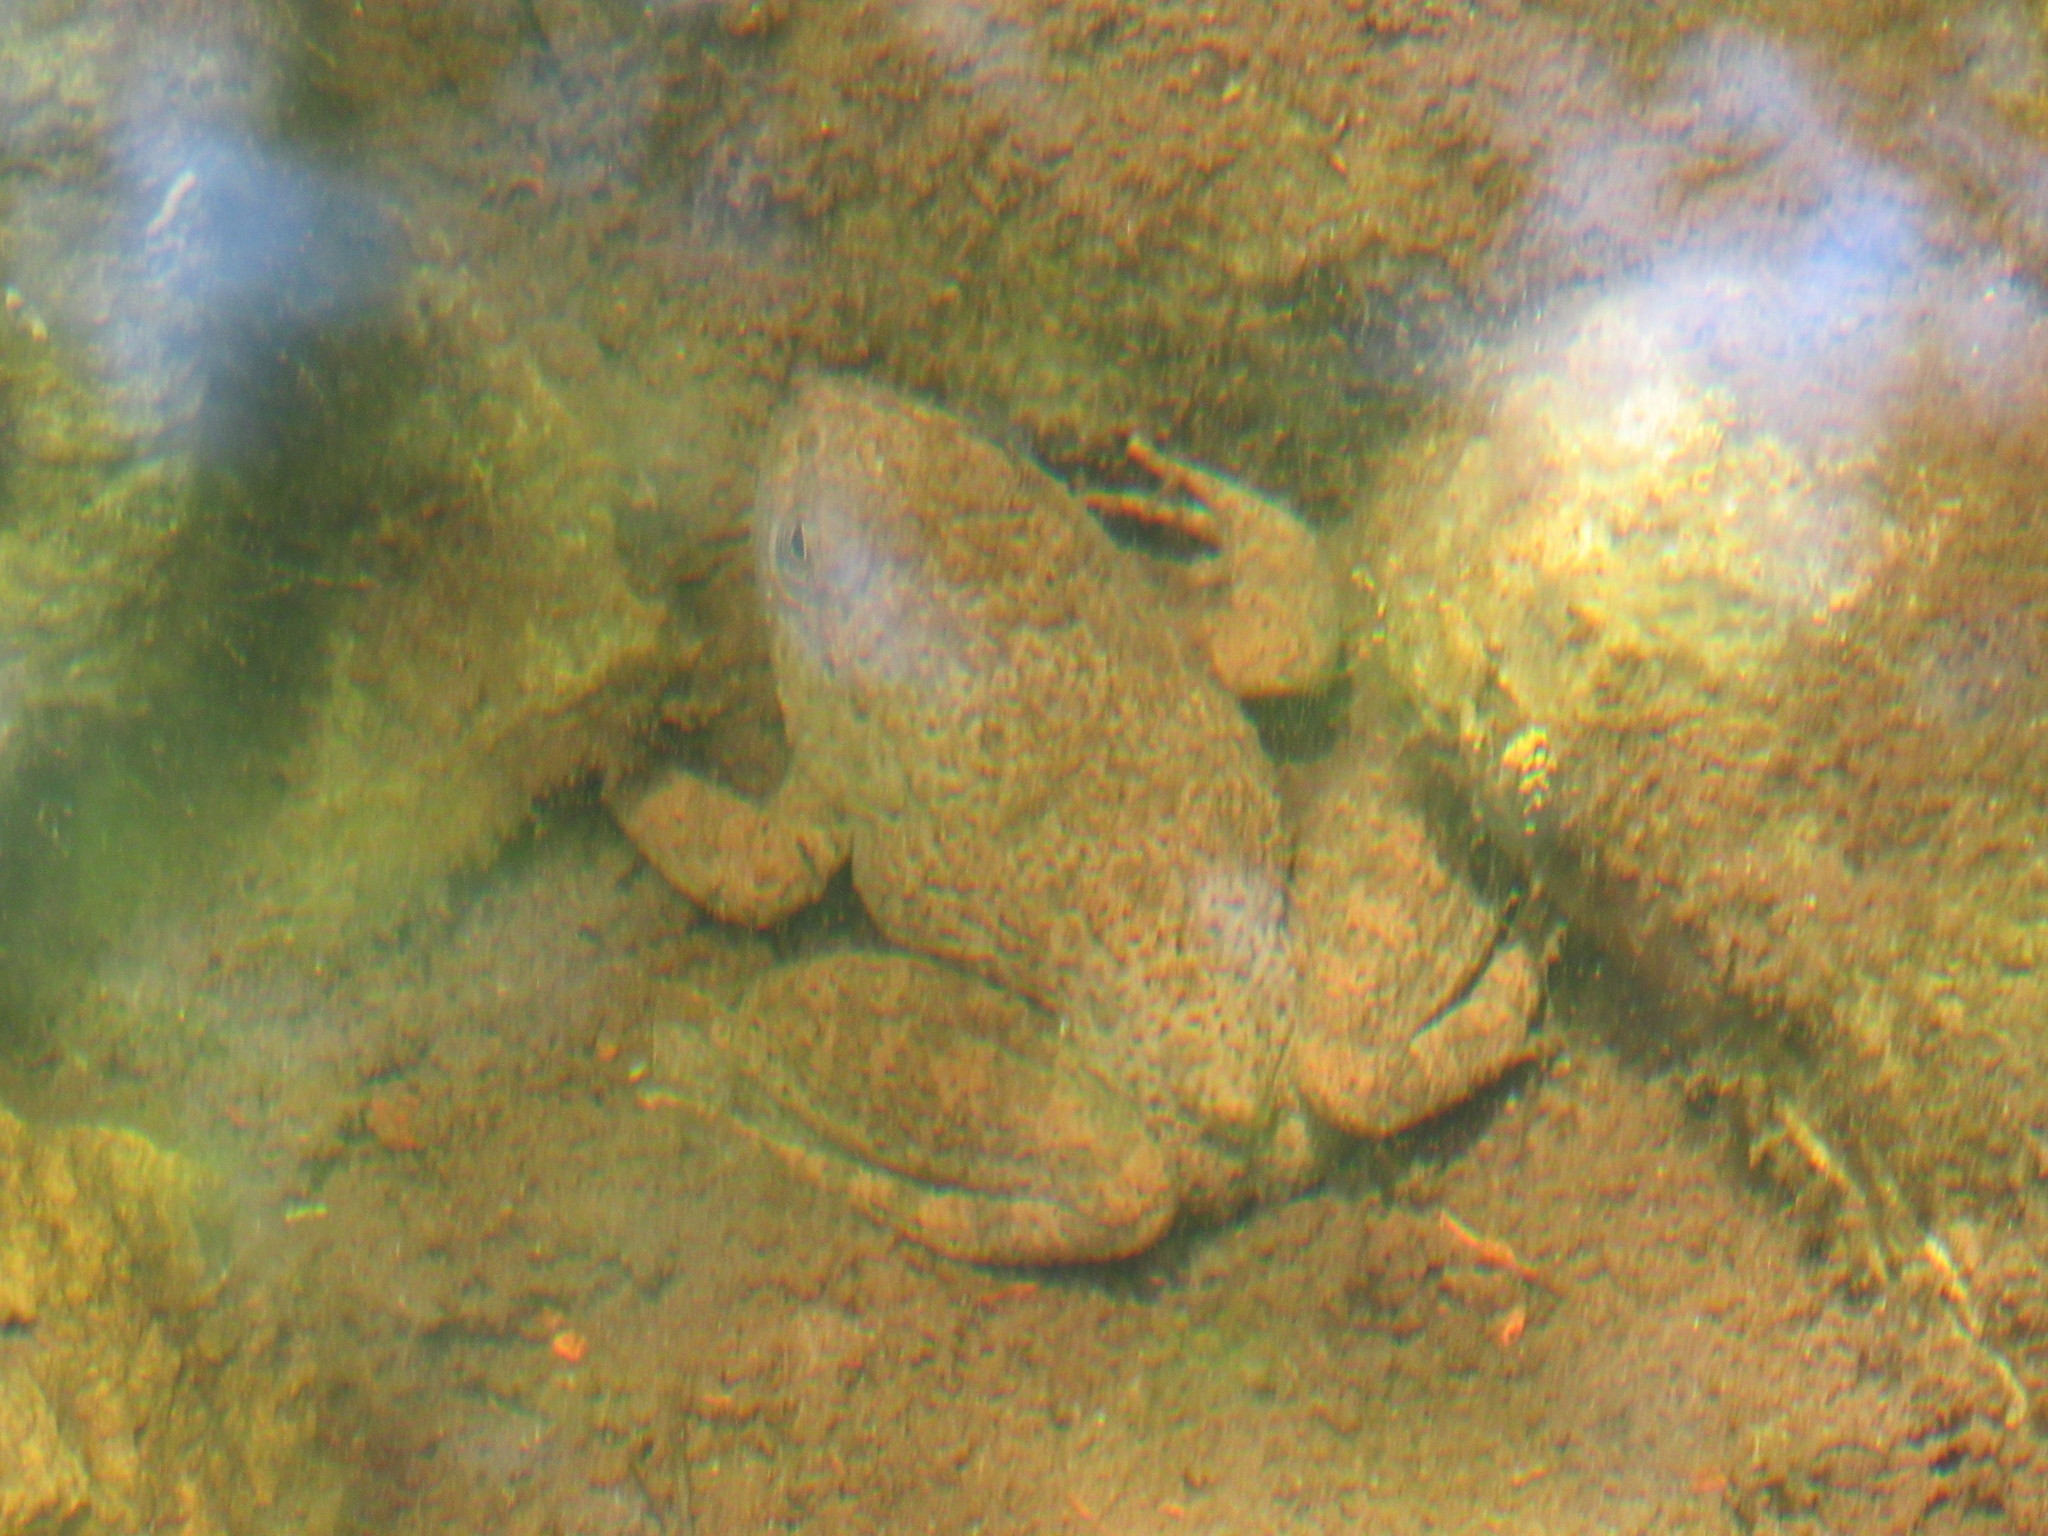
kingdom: Animalia
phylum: Chordata
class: Amphibia
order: Anura
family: Ranidae
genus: Lithobates
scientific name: Lithobates zweifeli
